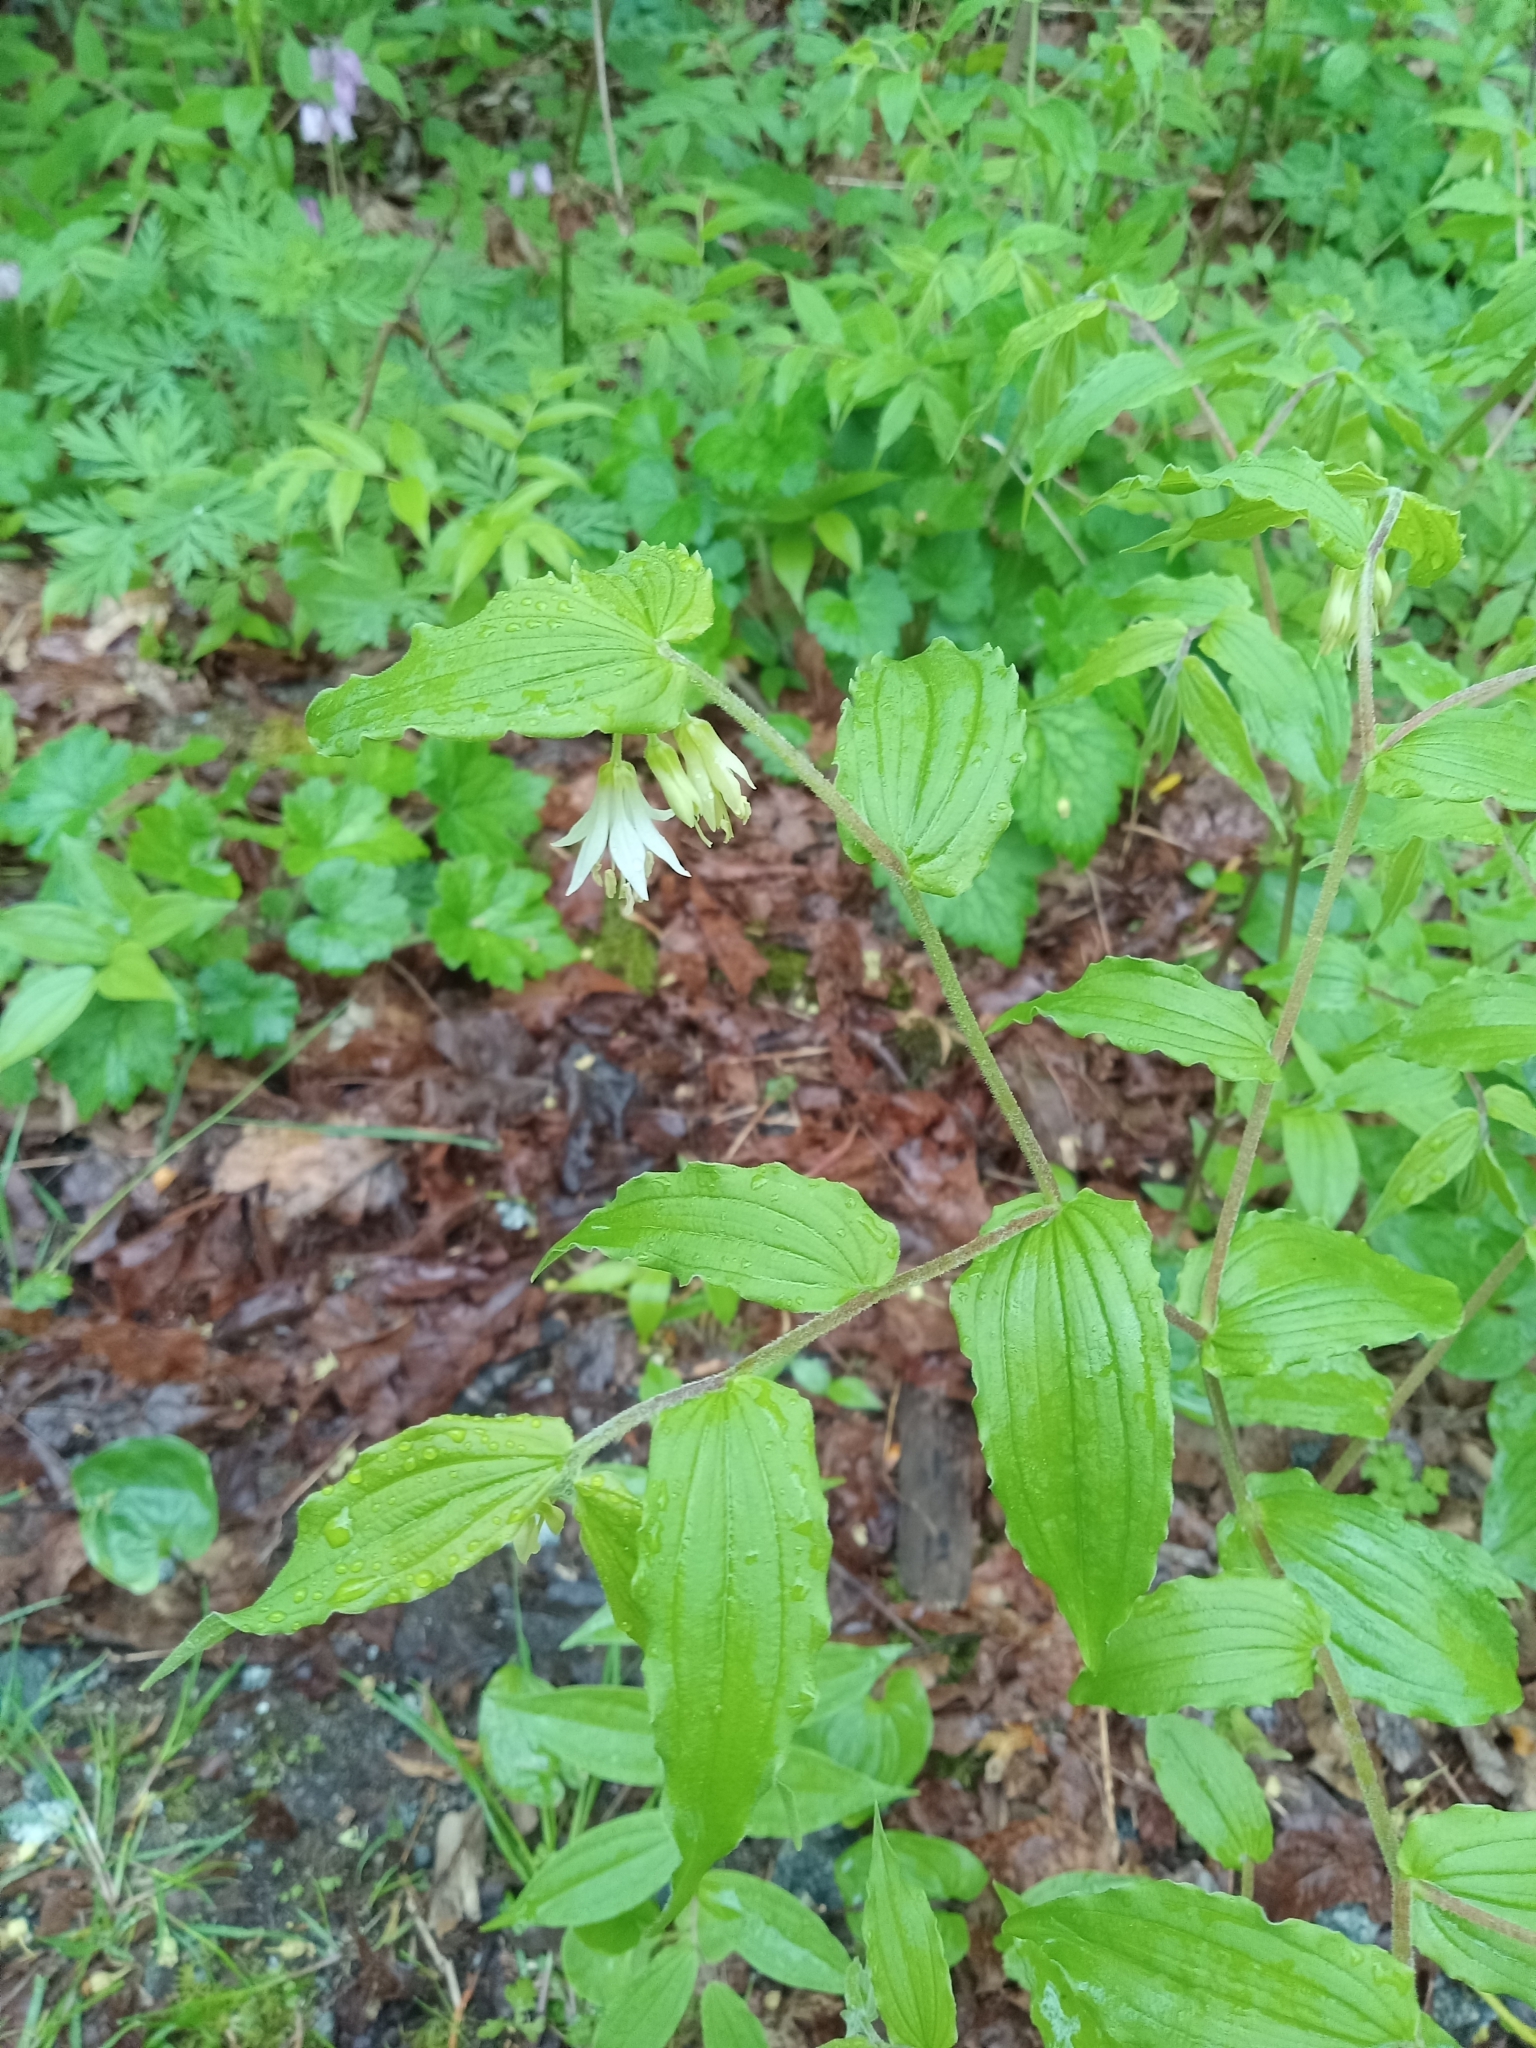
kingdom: Plantae
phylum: Tracheophyta
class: Liliopsida
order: Liliales
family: Liliaceae
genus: Prosartes
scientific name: Prosartes hookeri
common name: Fairy-bells
